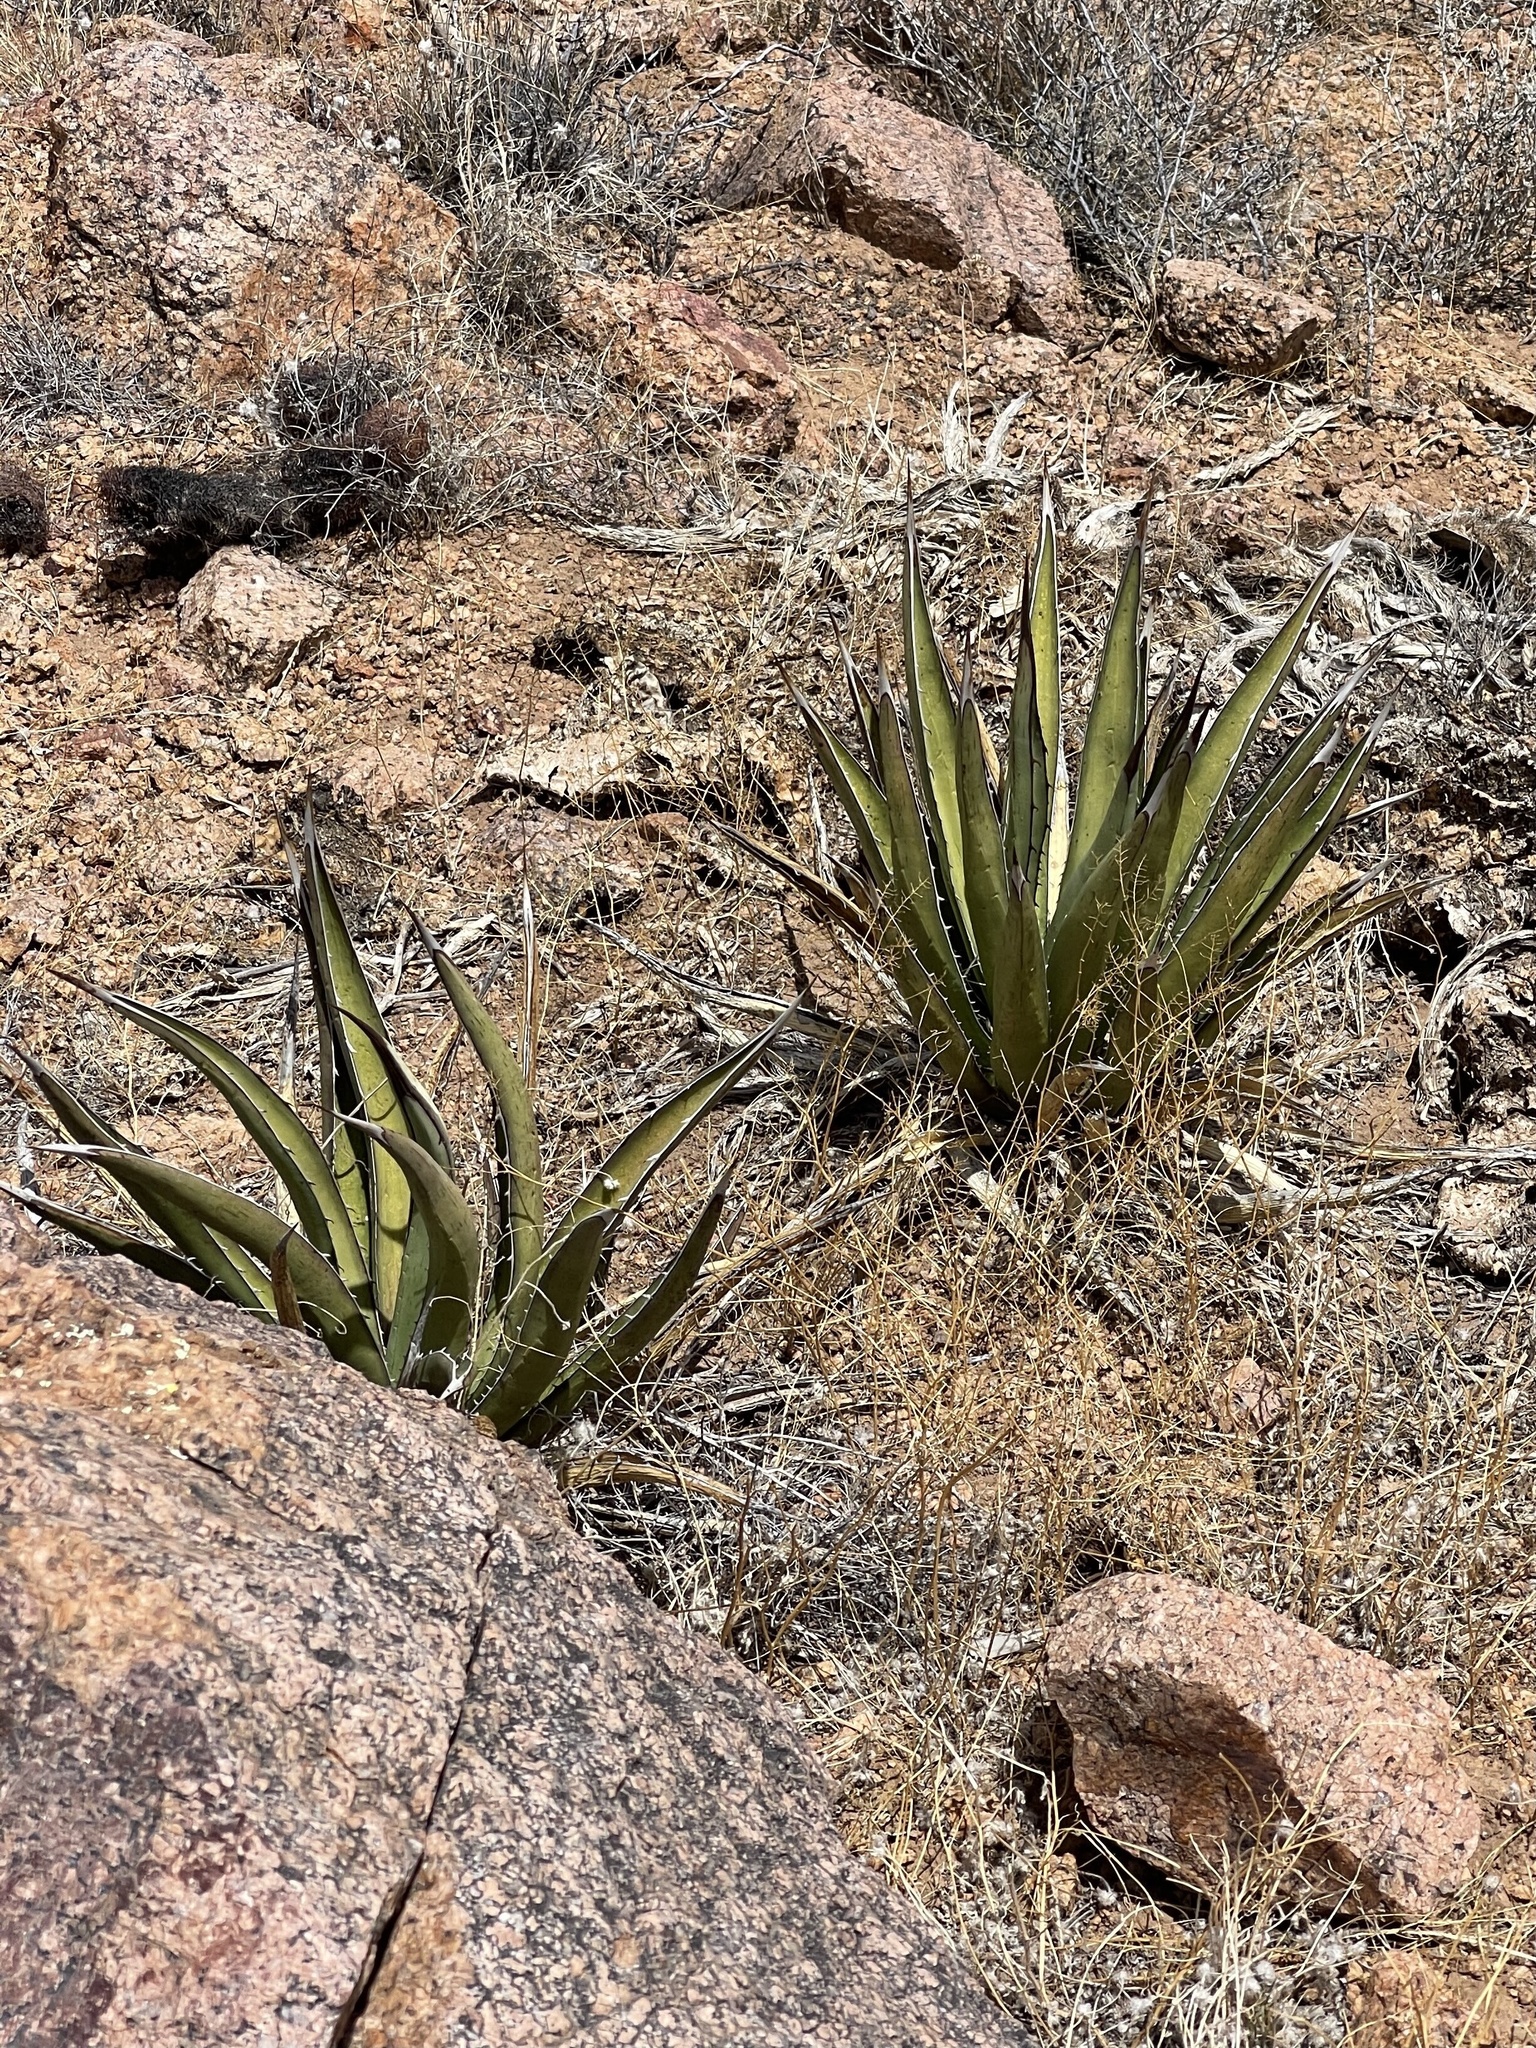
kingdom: Plantae
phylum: Tracheophyta
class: Liliopsida
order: Asparagales
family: Asparagaceae
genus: Agave
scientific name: Agave lechuguilla
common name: Lecheguilla agave
